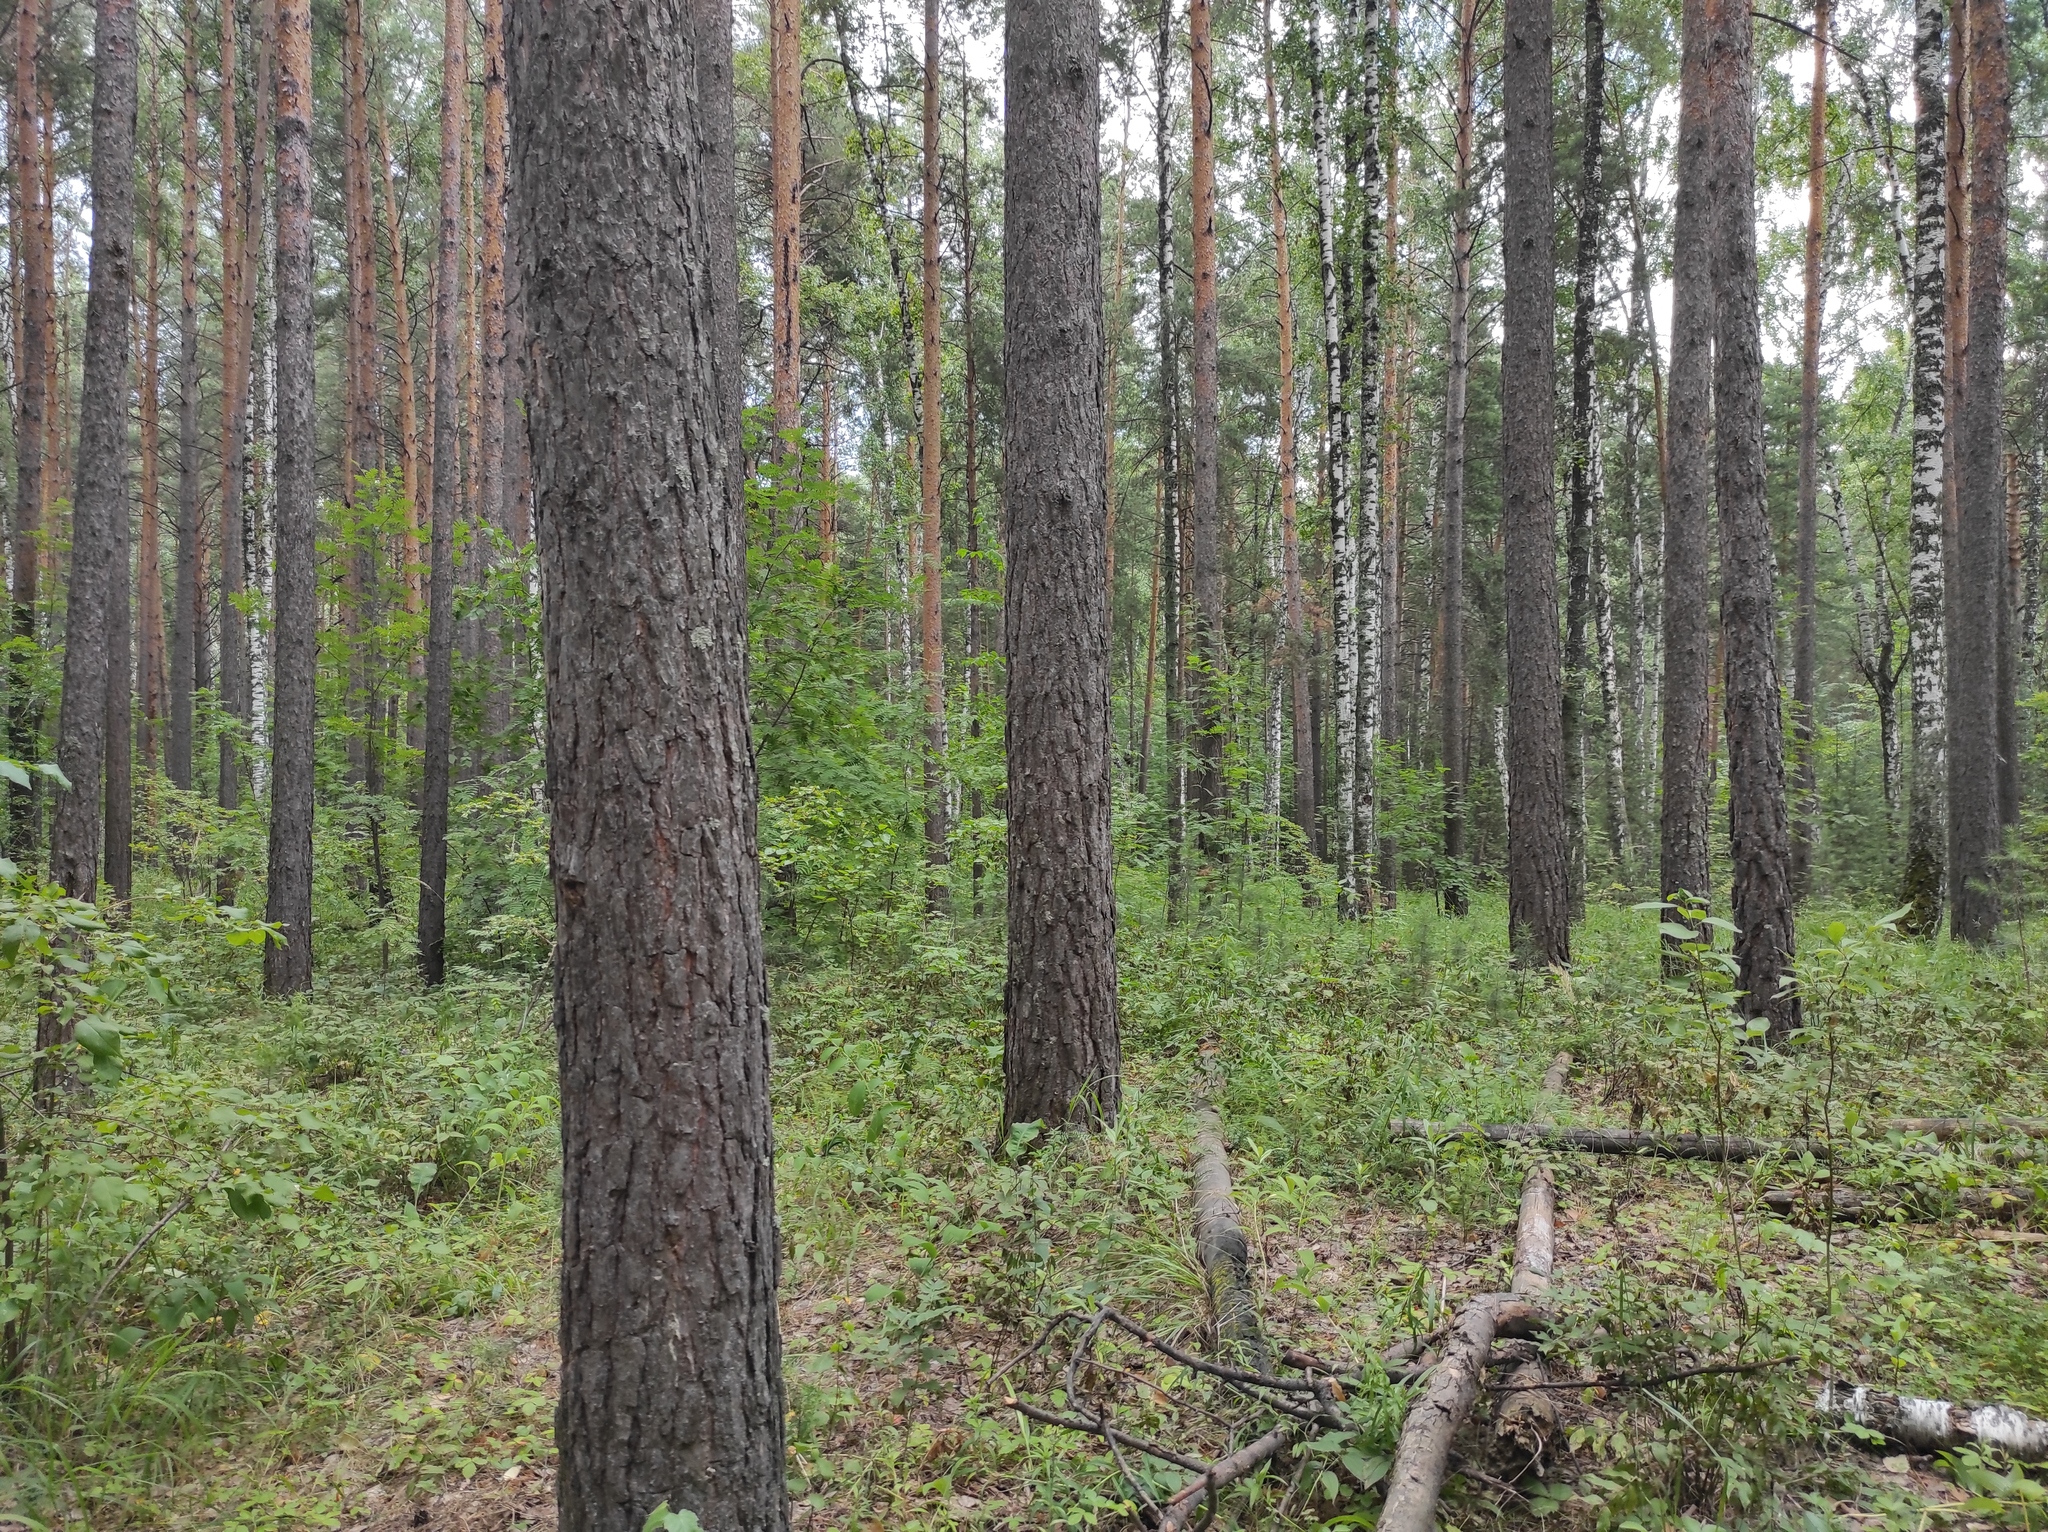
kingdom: Plantae
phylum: Tracheophyta
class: Pinopsida
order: Pinales
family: Pinaceae
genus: Pinus
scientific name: Pinus sylvestris
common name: Scots pine
